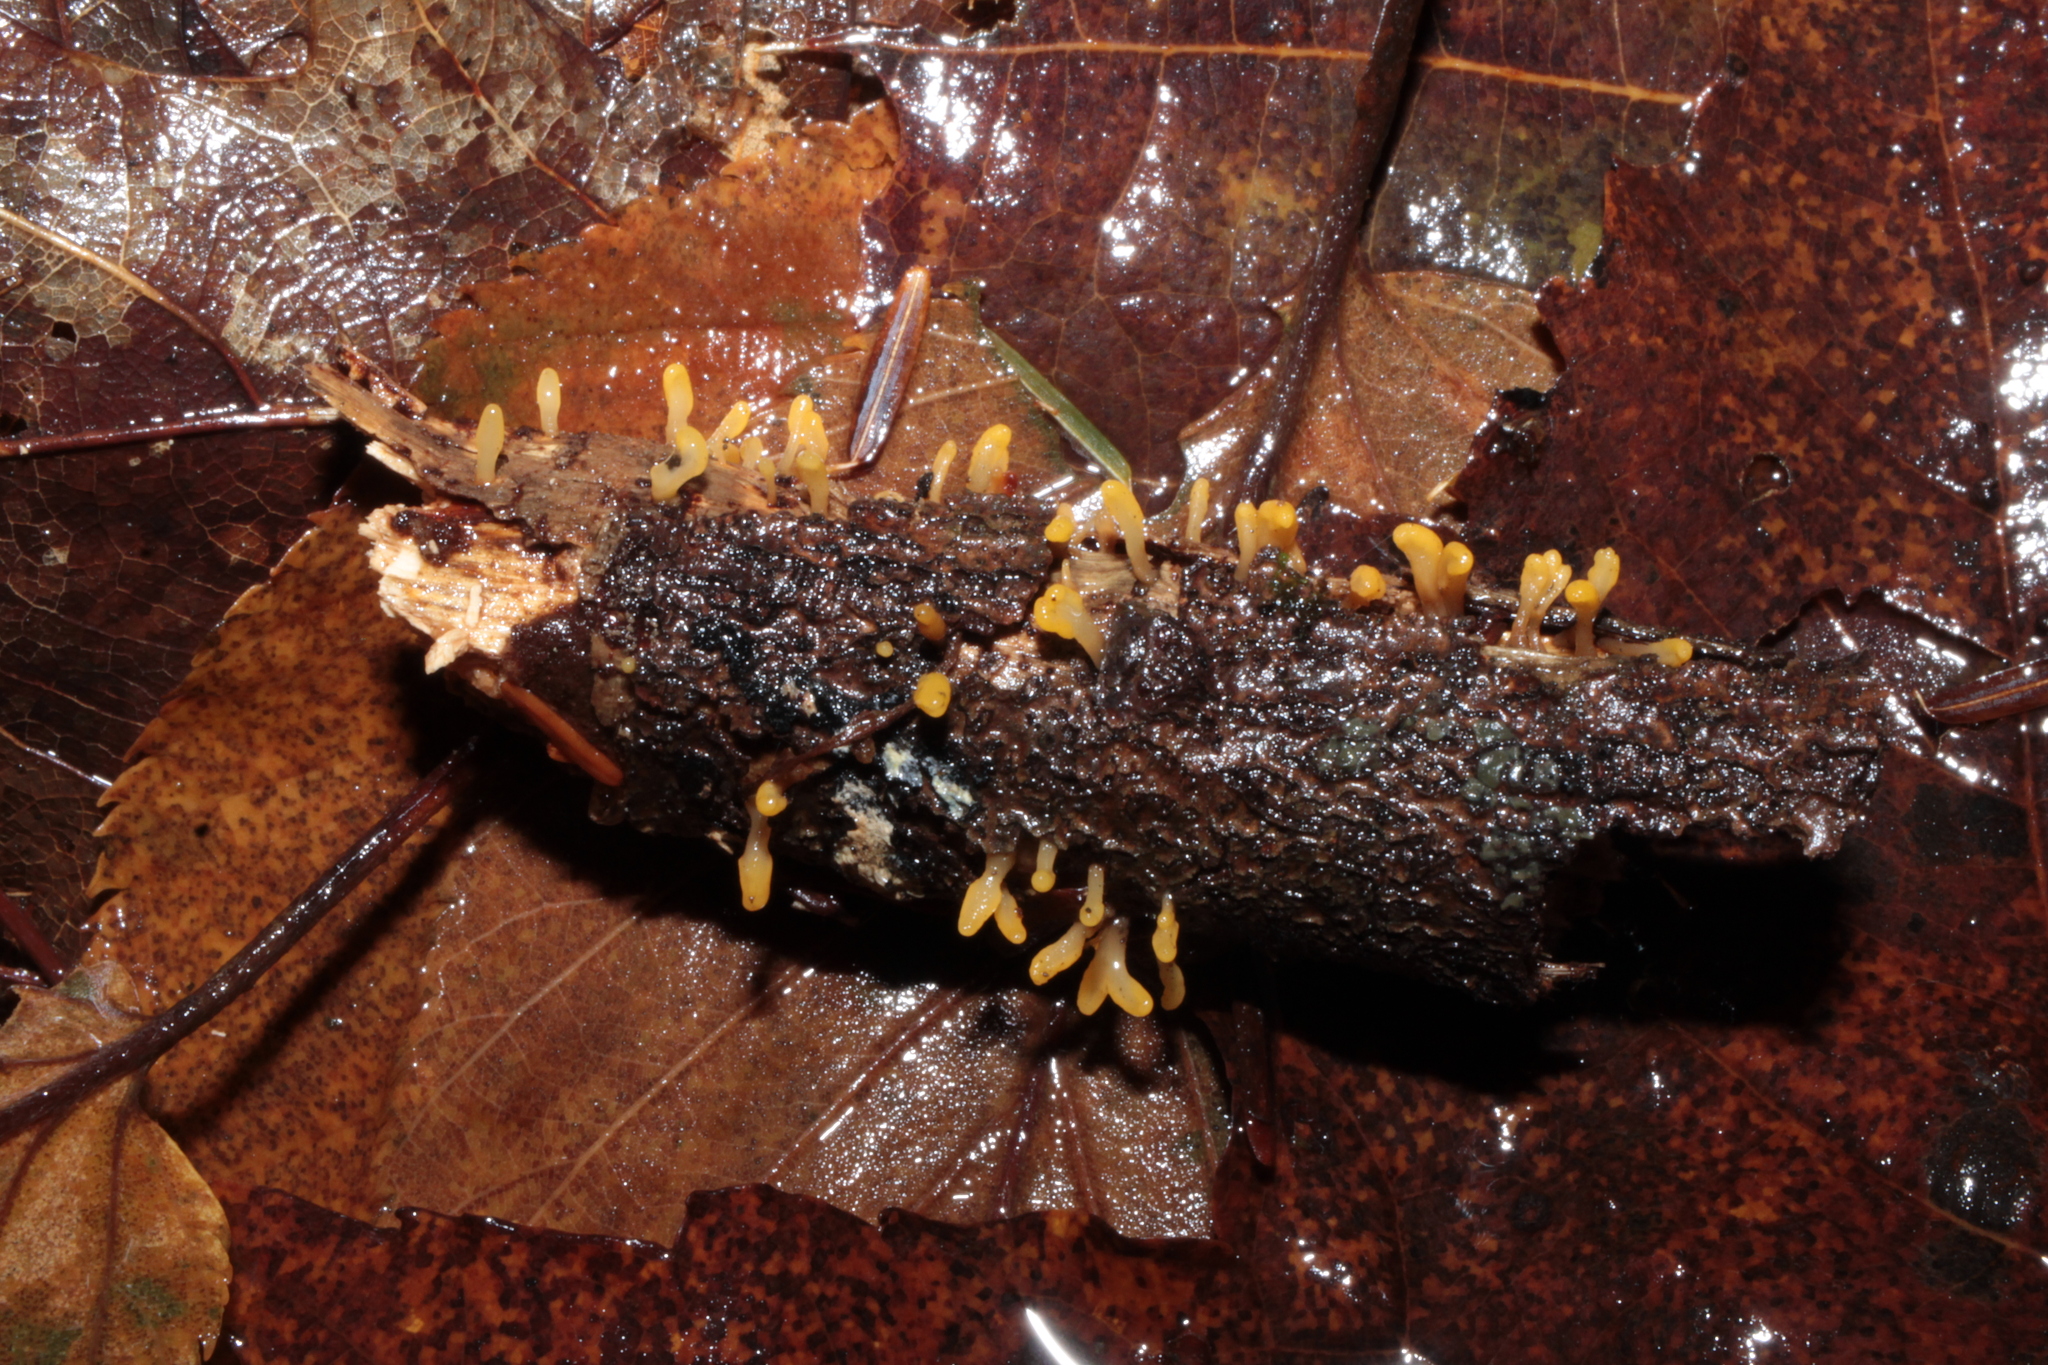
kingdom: Fungi
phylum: Basidiomycota
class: Dacrymycetes
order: Dacrymycetales
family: Dacrymycetaceae
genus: Dacrymyces
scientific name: Dacrymyces spathularius
